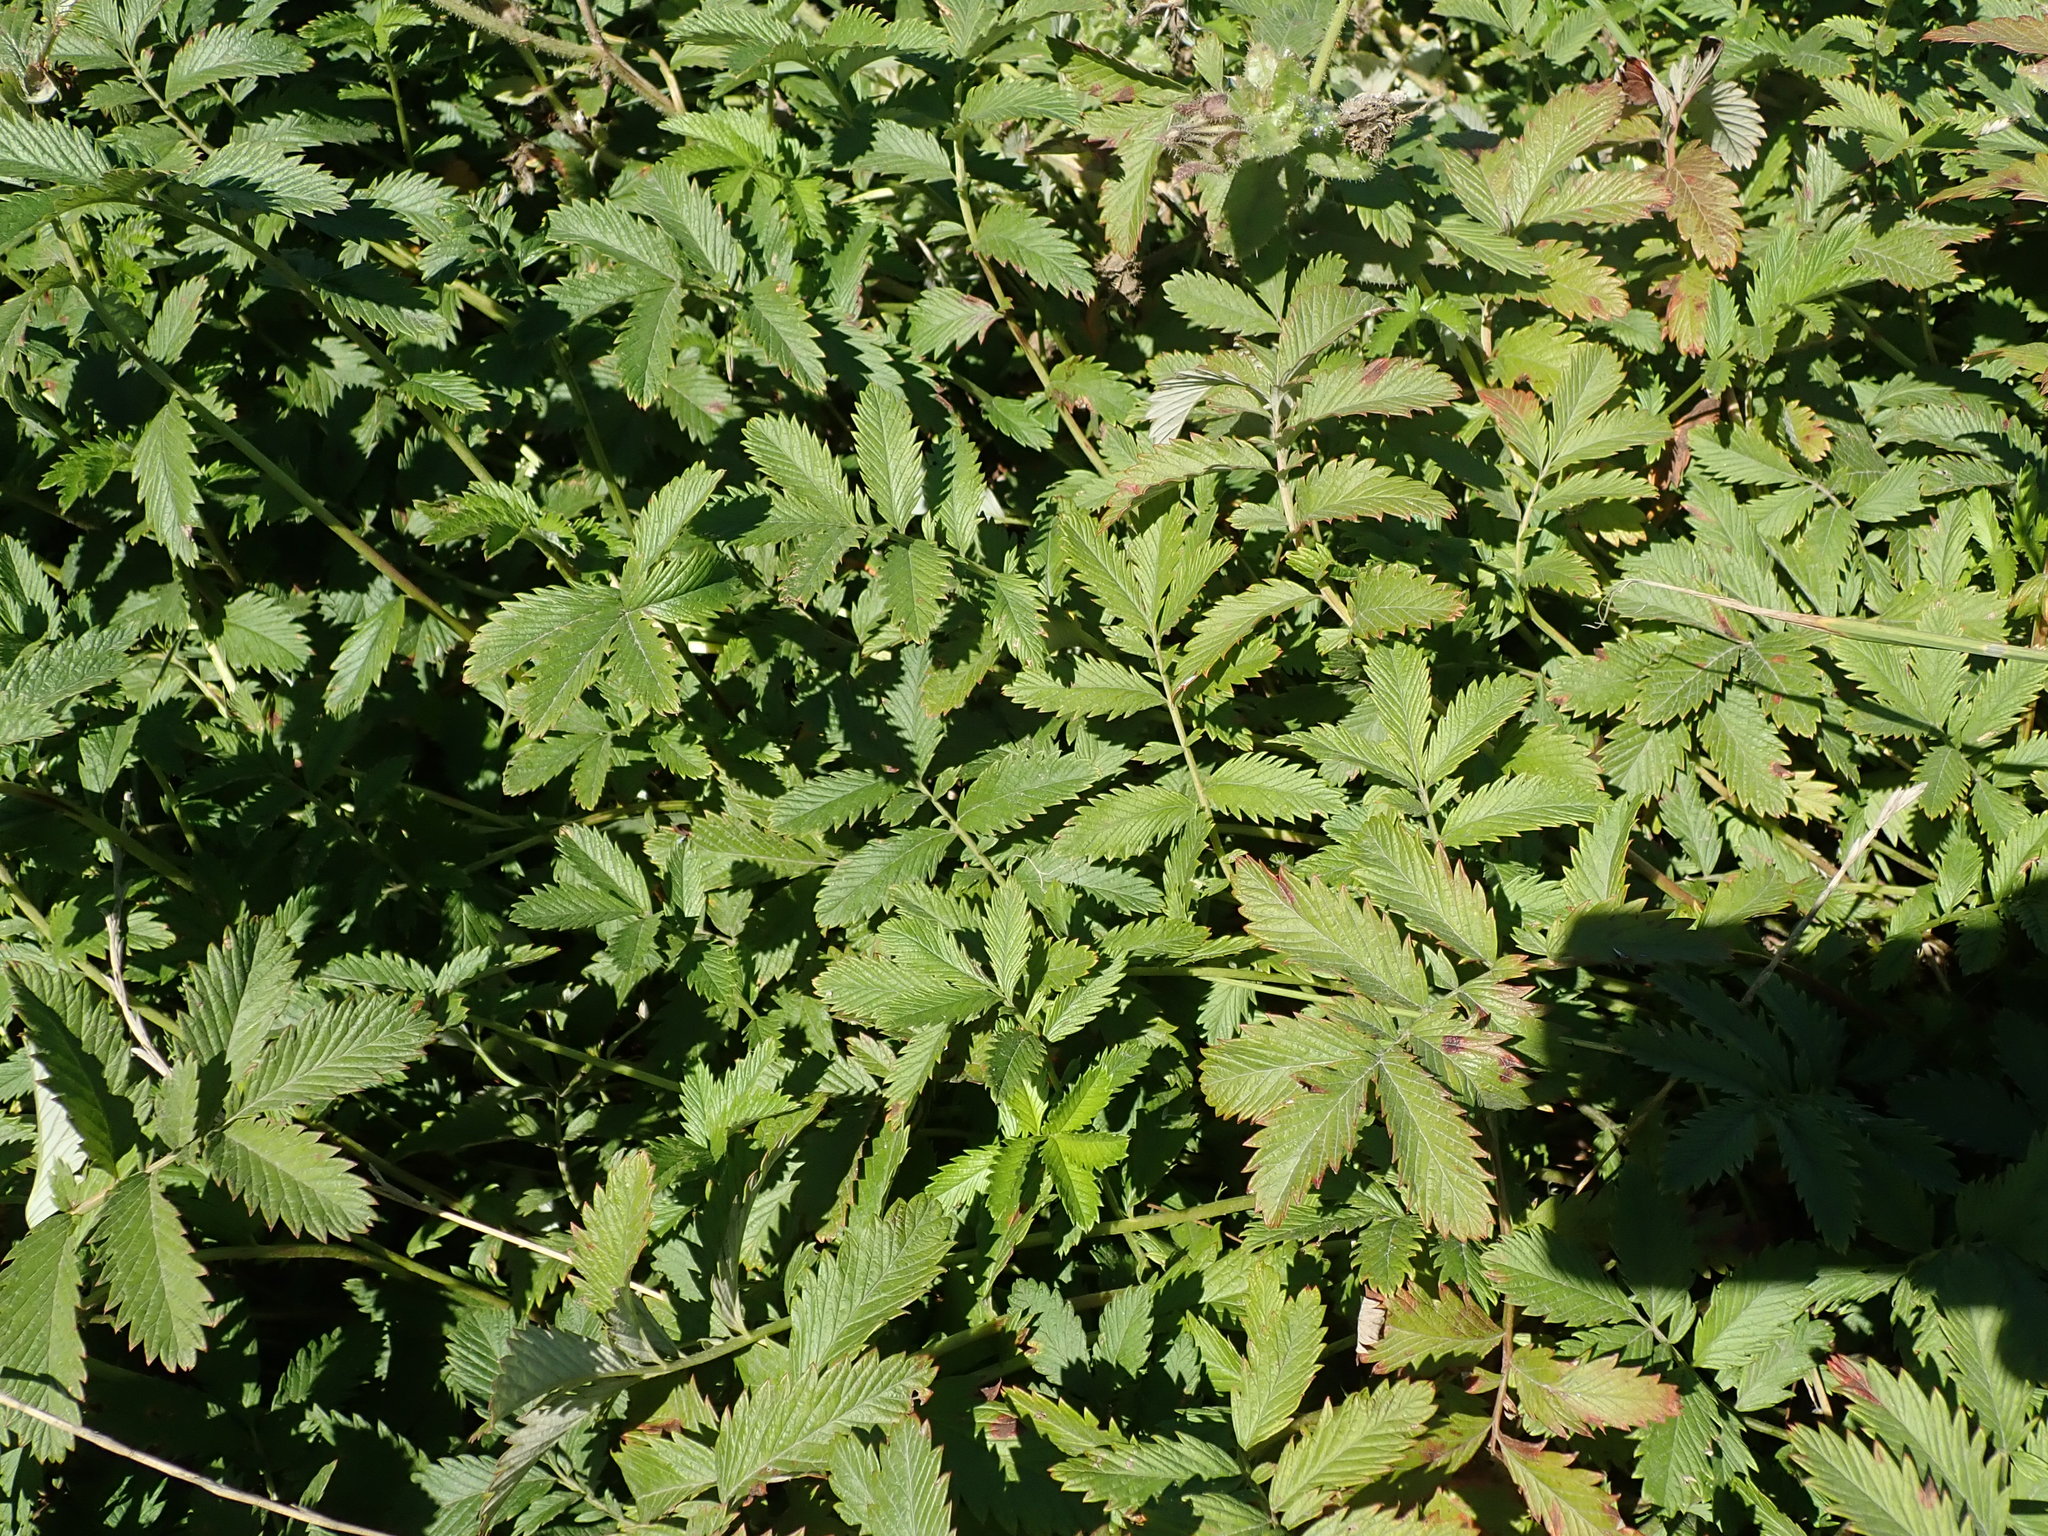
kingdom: Plantae
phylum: Tracheophyta
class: Magnoliopsida
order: Rosales
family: Rosaceae
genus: Argentina
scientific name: Argentina anserina
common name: Common silverweed
